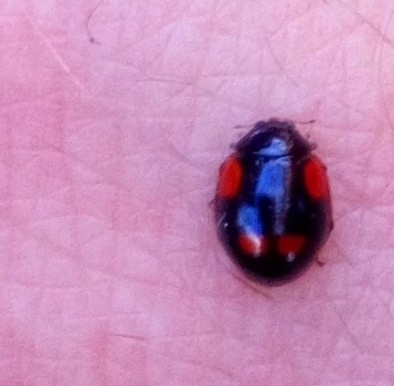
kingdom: Animalia
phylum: Arthropoda
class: Insecta
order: Coleoptera
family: Coccinellidae
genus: Adalia
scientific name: Adalia bipunctata
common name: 2-spot ladybird
